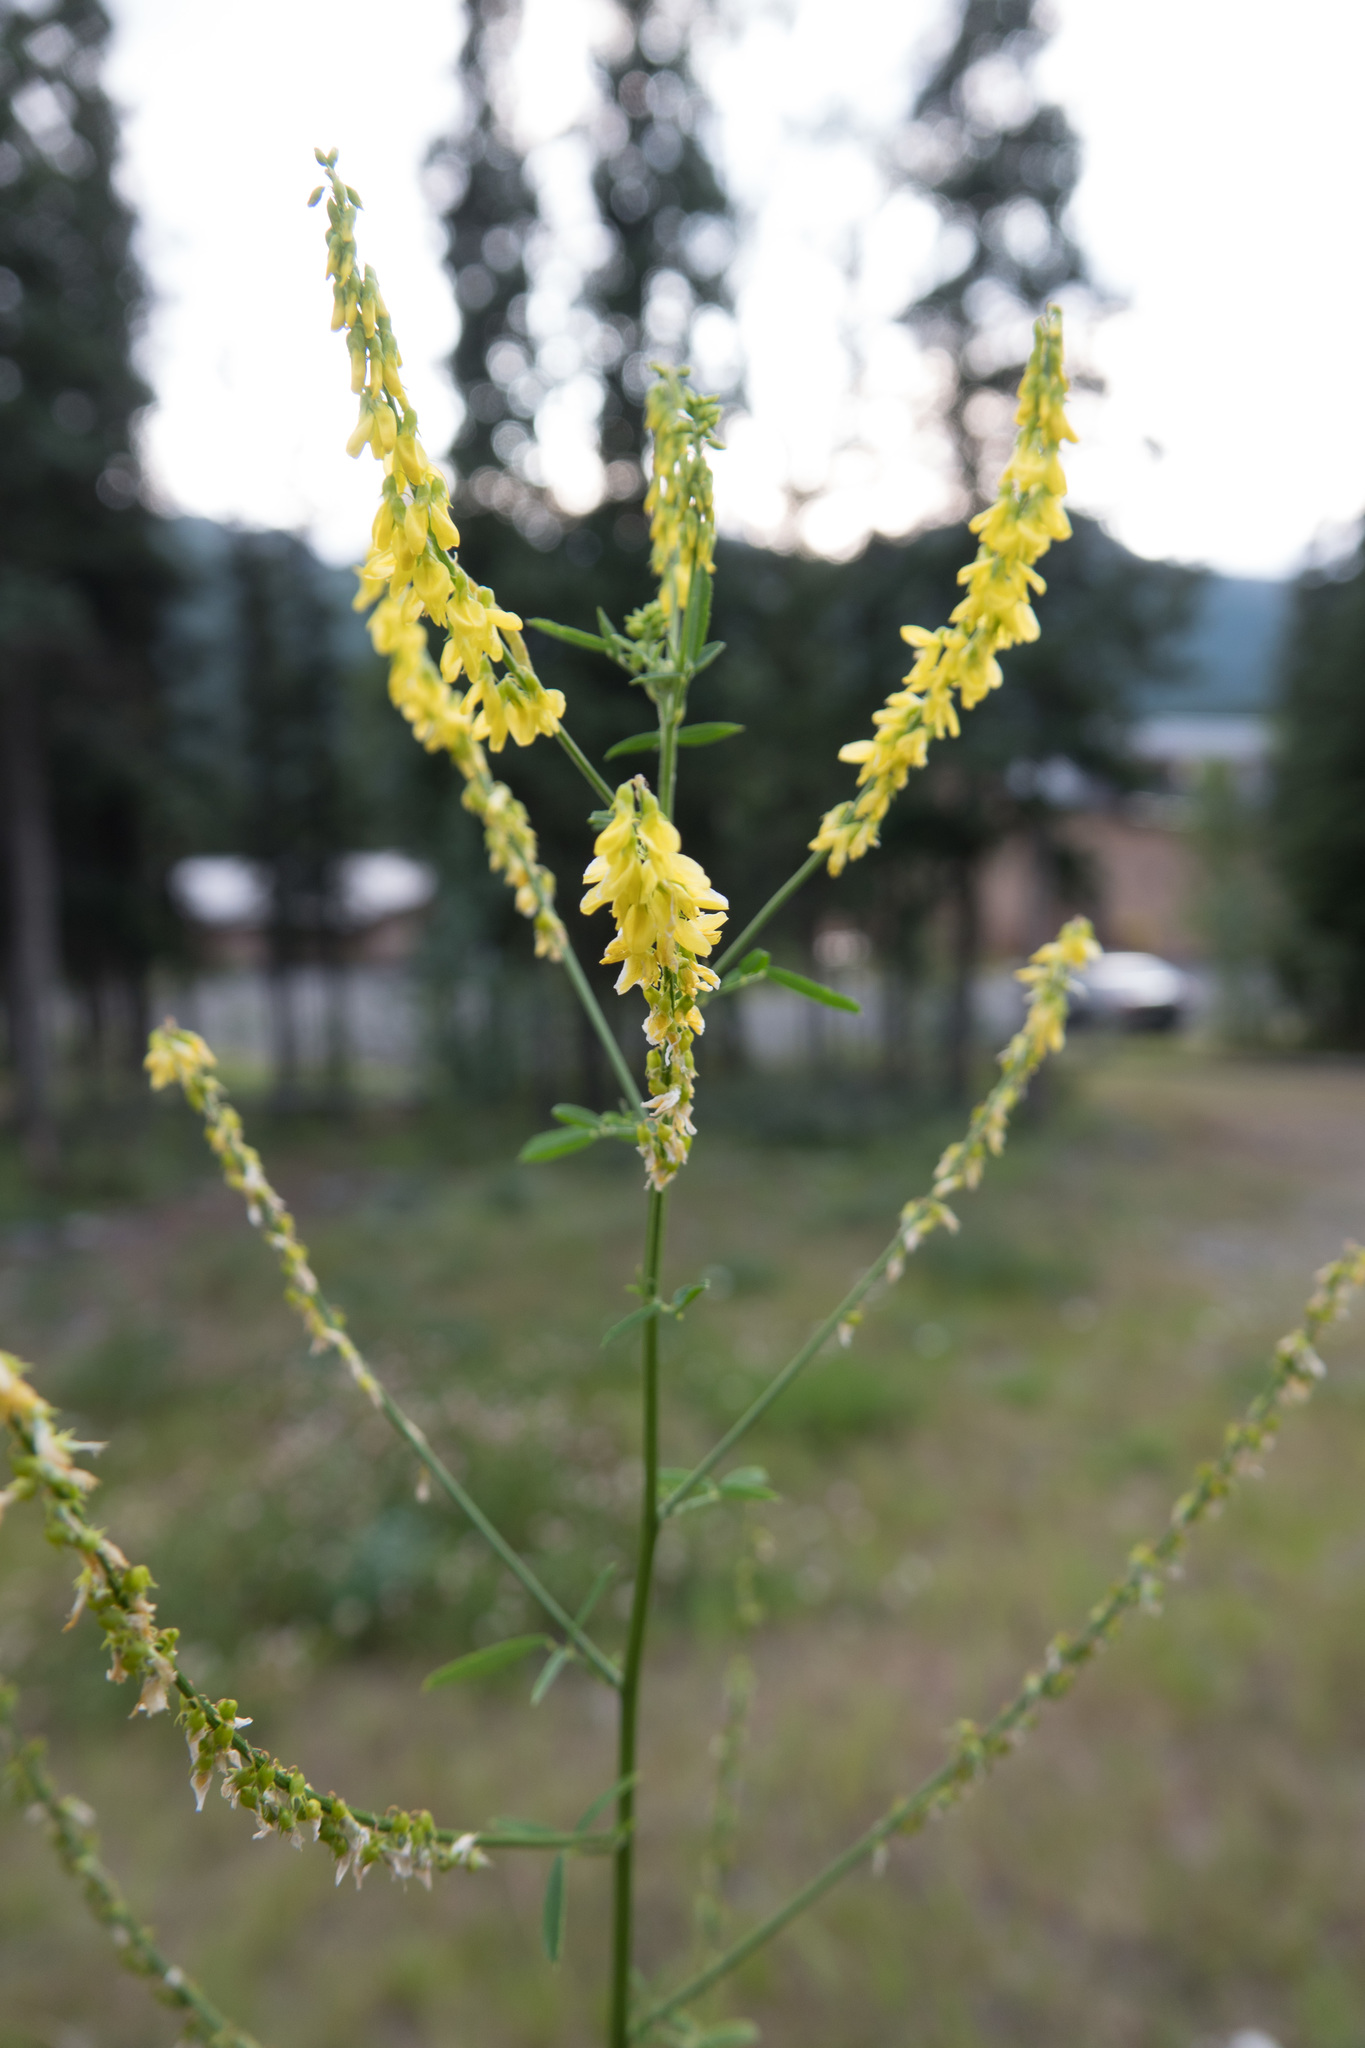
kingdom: Plantae
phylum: Tracheophyta
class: Magnoliopsida
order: Fabales
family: Fabaceae
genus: Melilotus
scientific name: Melilotus officinalis
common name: Sweetclover
